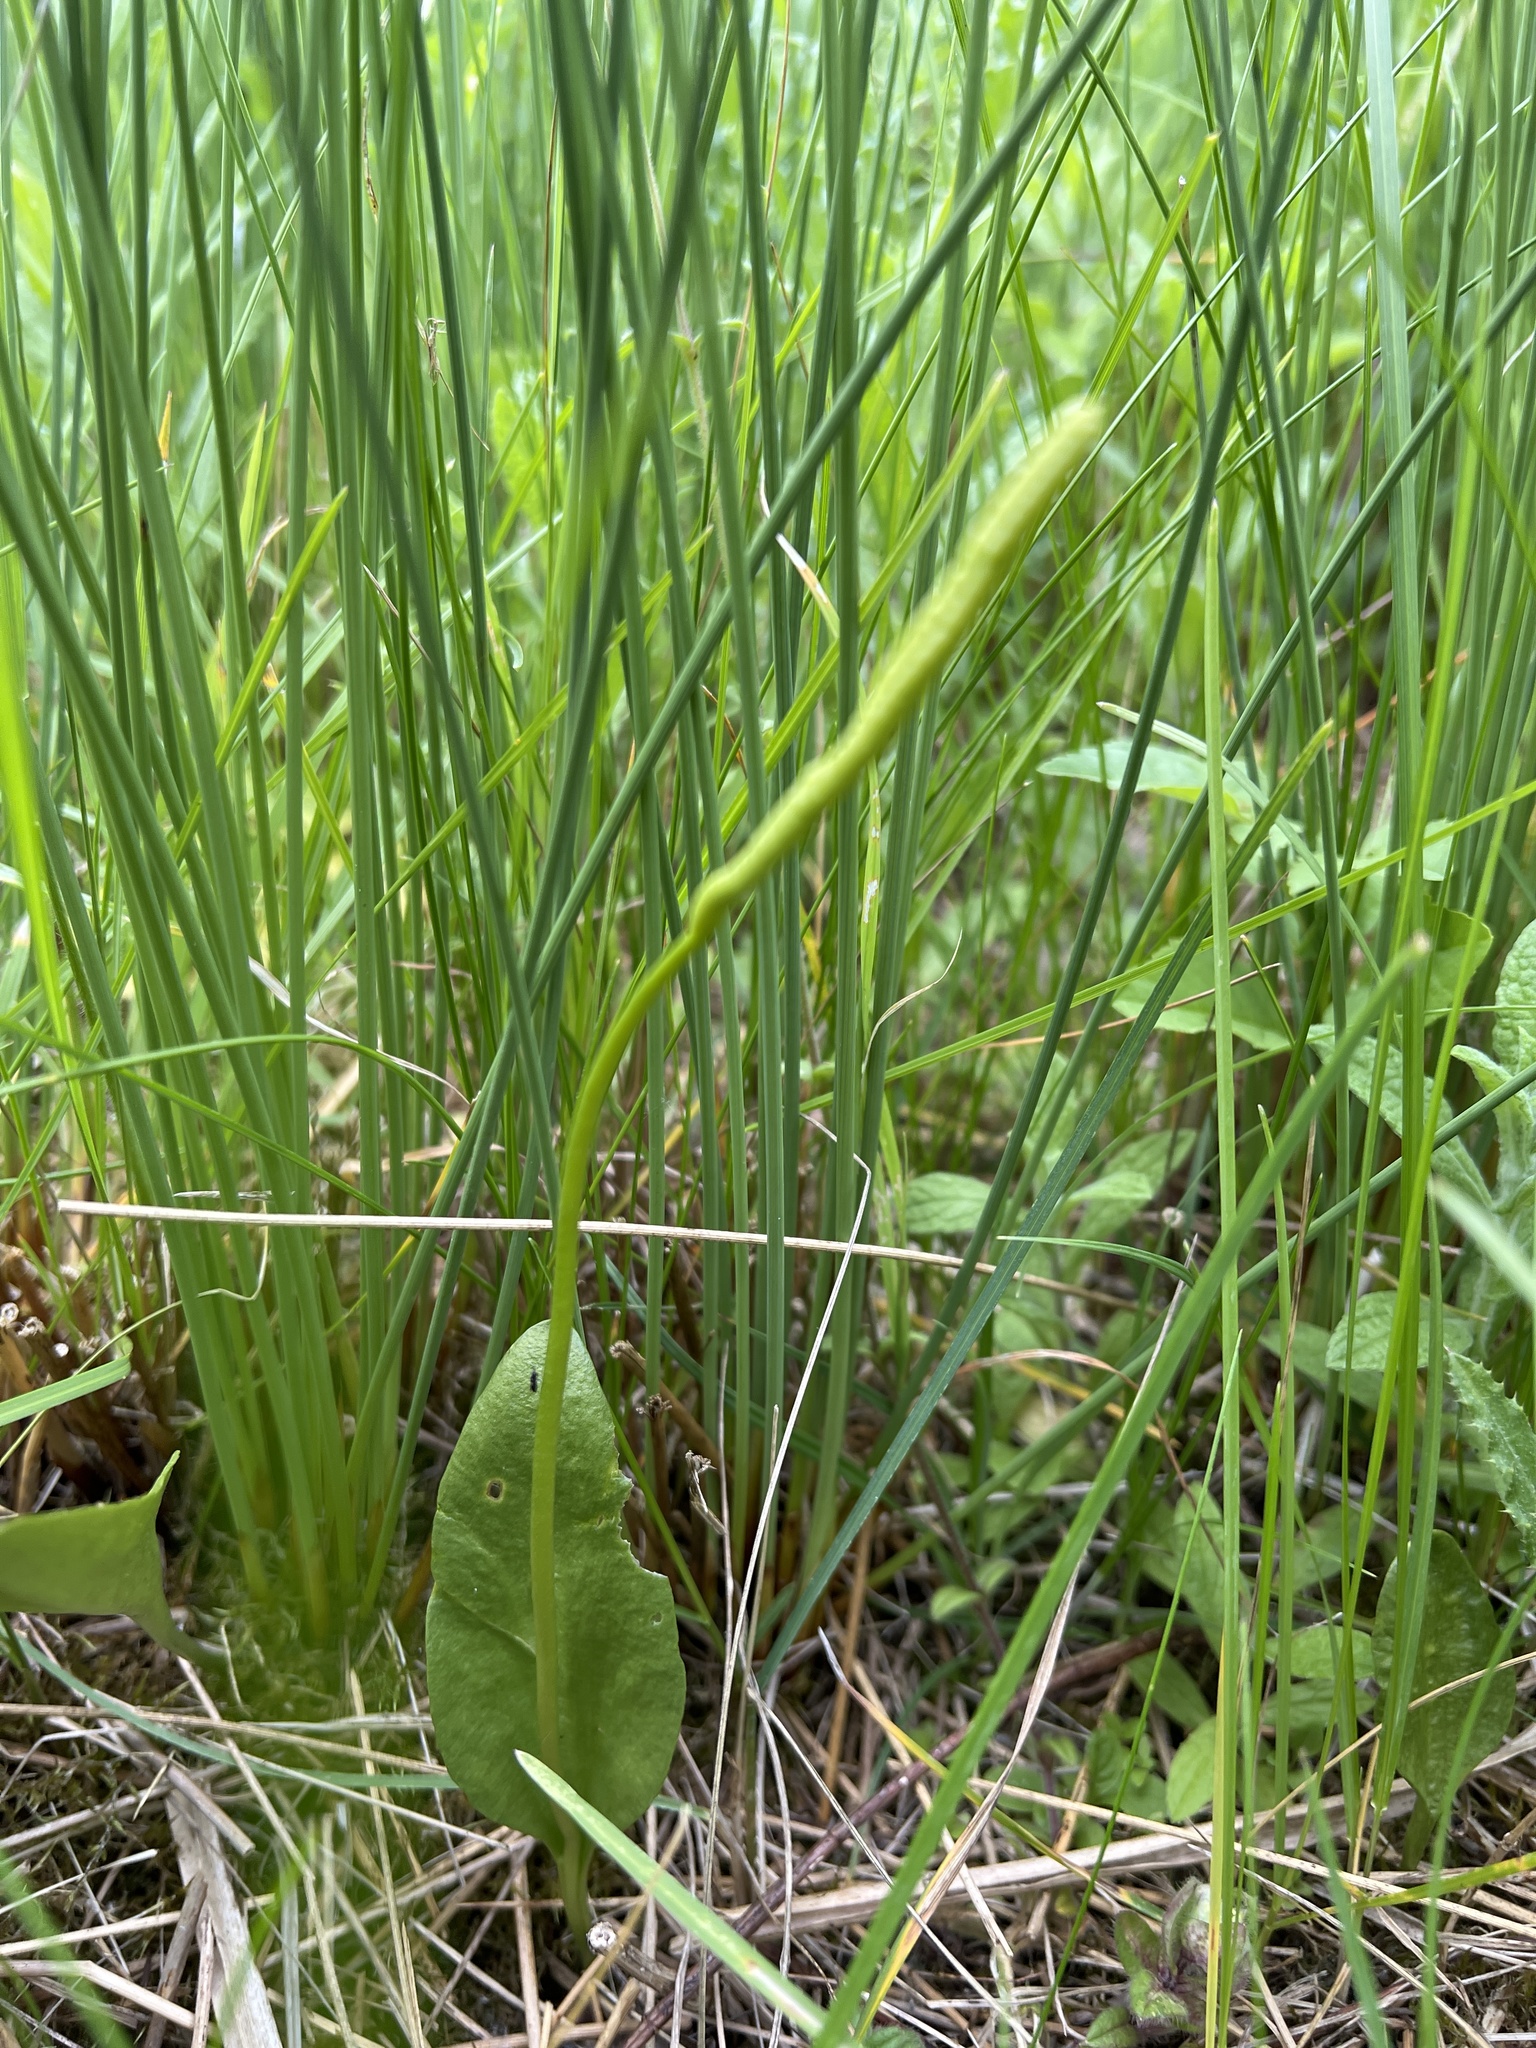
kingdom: Plantae
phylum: Tracheophyta
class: Polypodiopsida
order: Ophioglossales
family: Ophioglossaceae
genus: Ophioglossum
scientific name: Ophioglossum vulgatum
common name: Adder's-tongue
